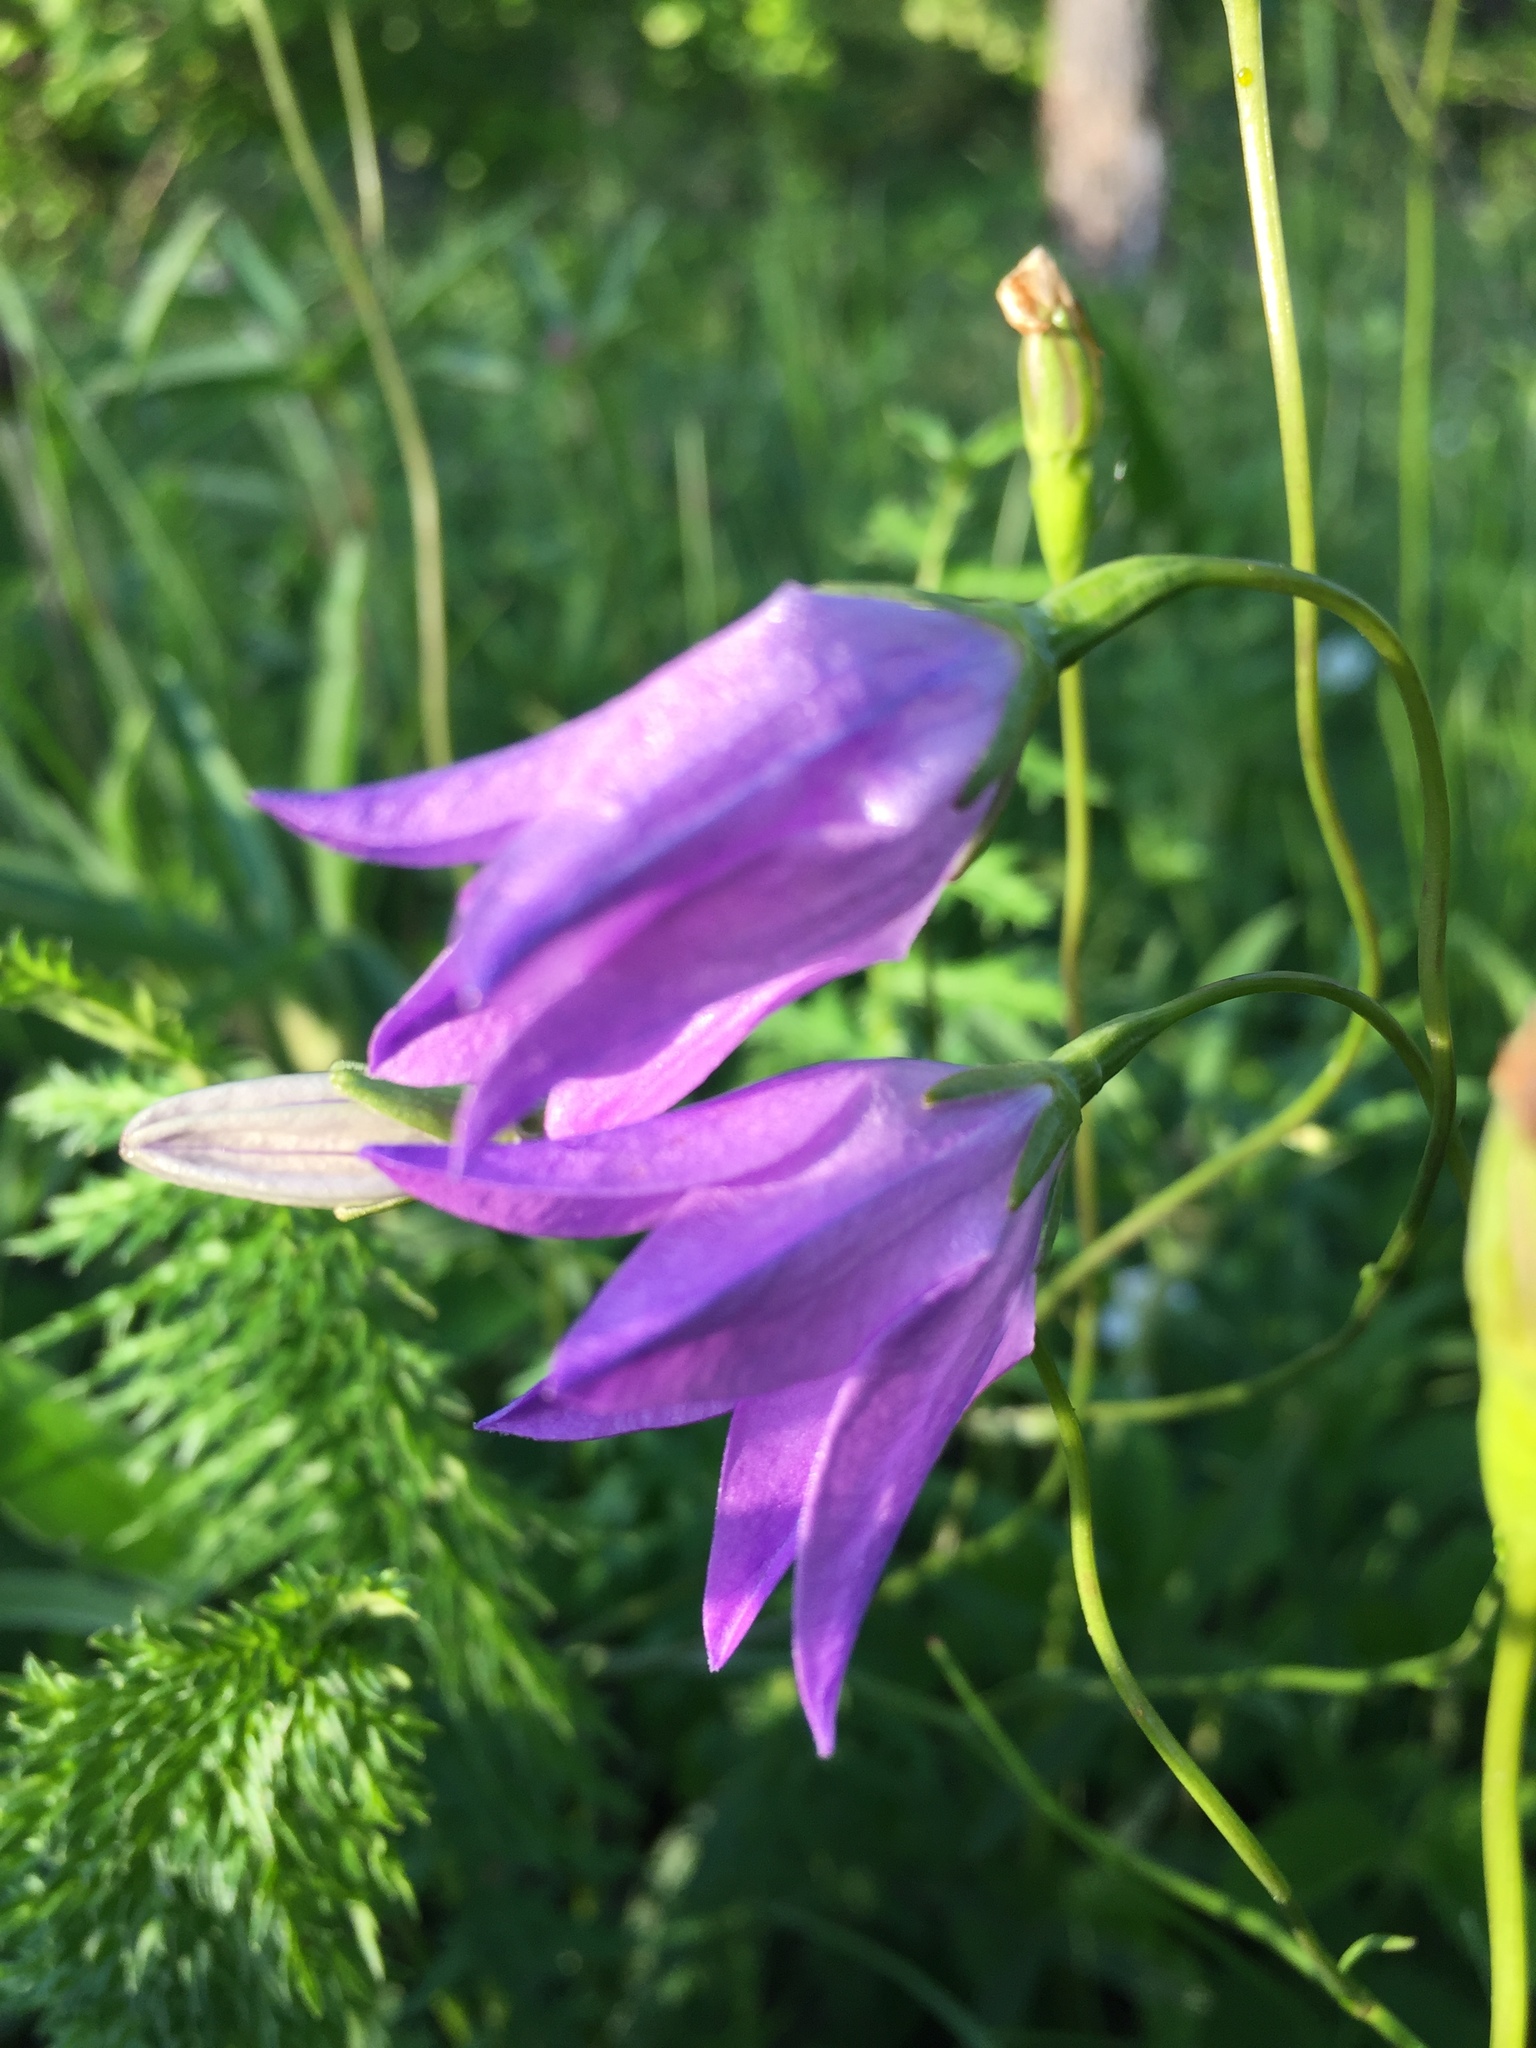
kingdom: Plantae
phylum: Tracheophyta
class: Magnoliopsida
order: Asterales
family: Campanulaceae
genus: Campanula
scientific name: Campanula stevenii
